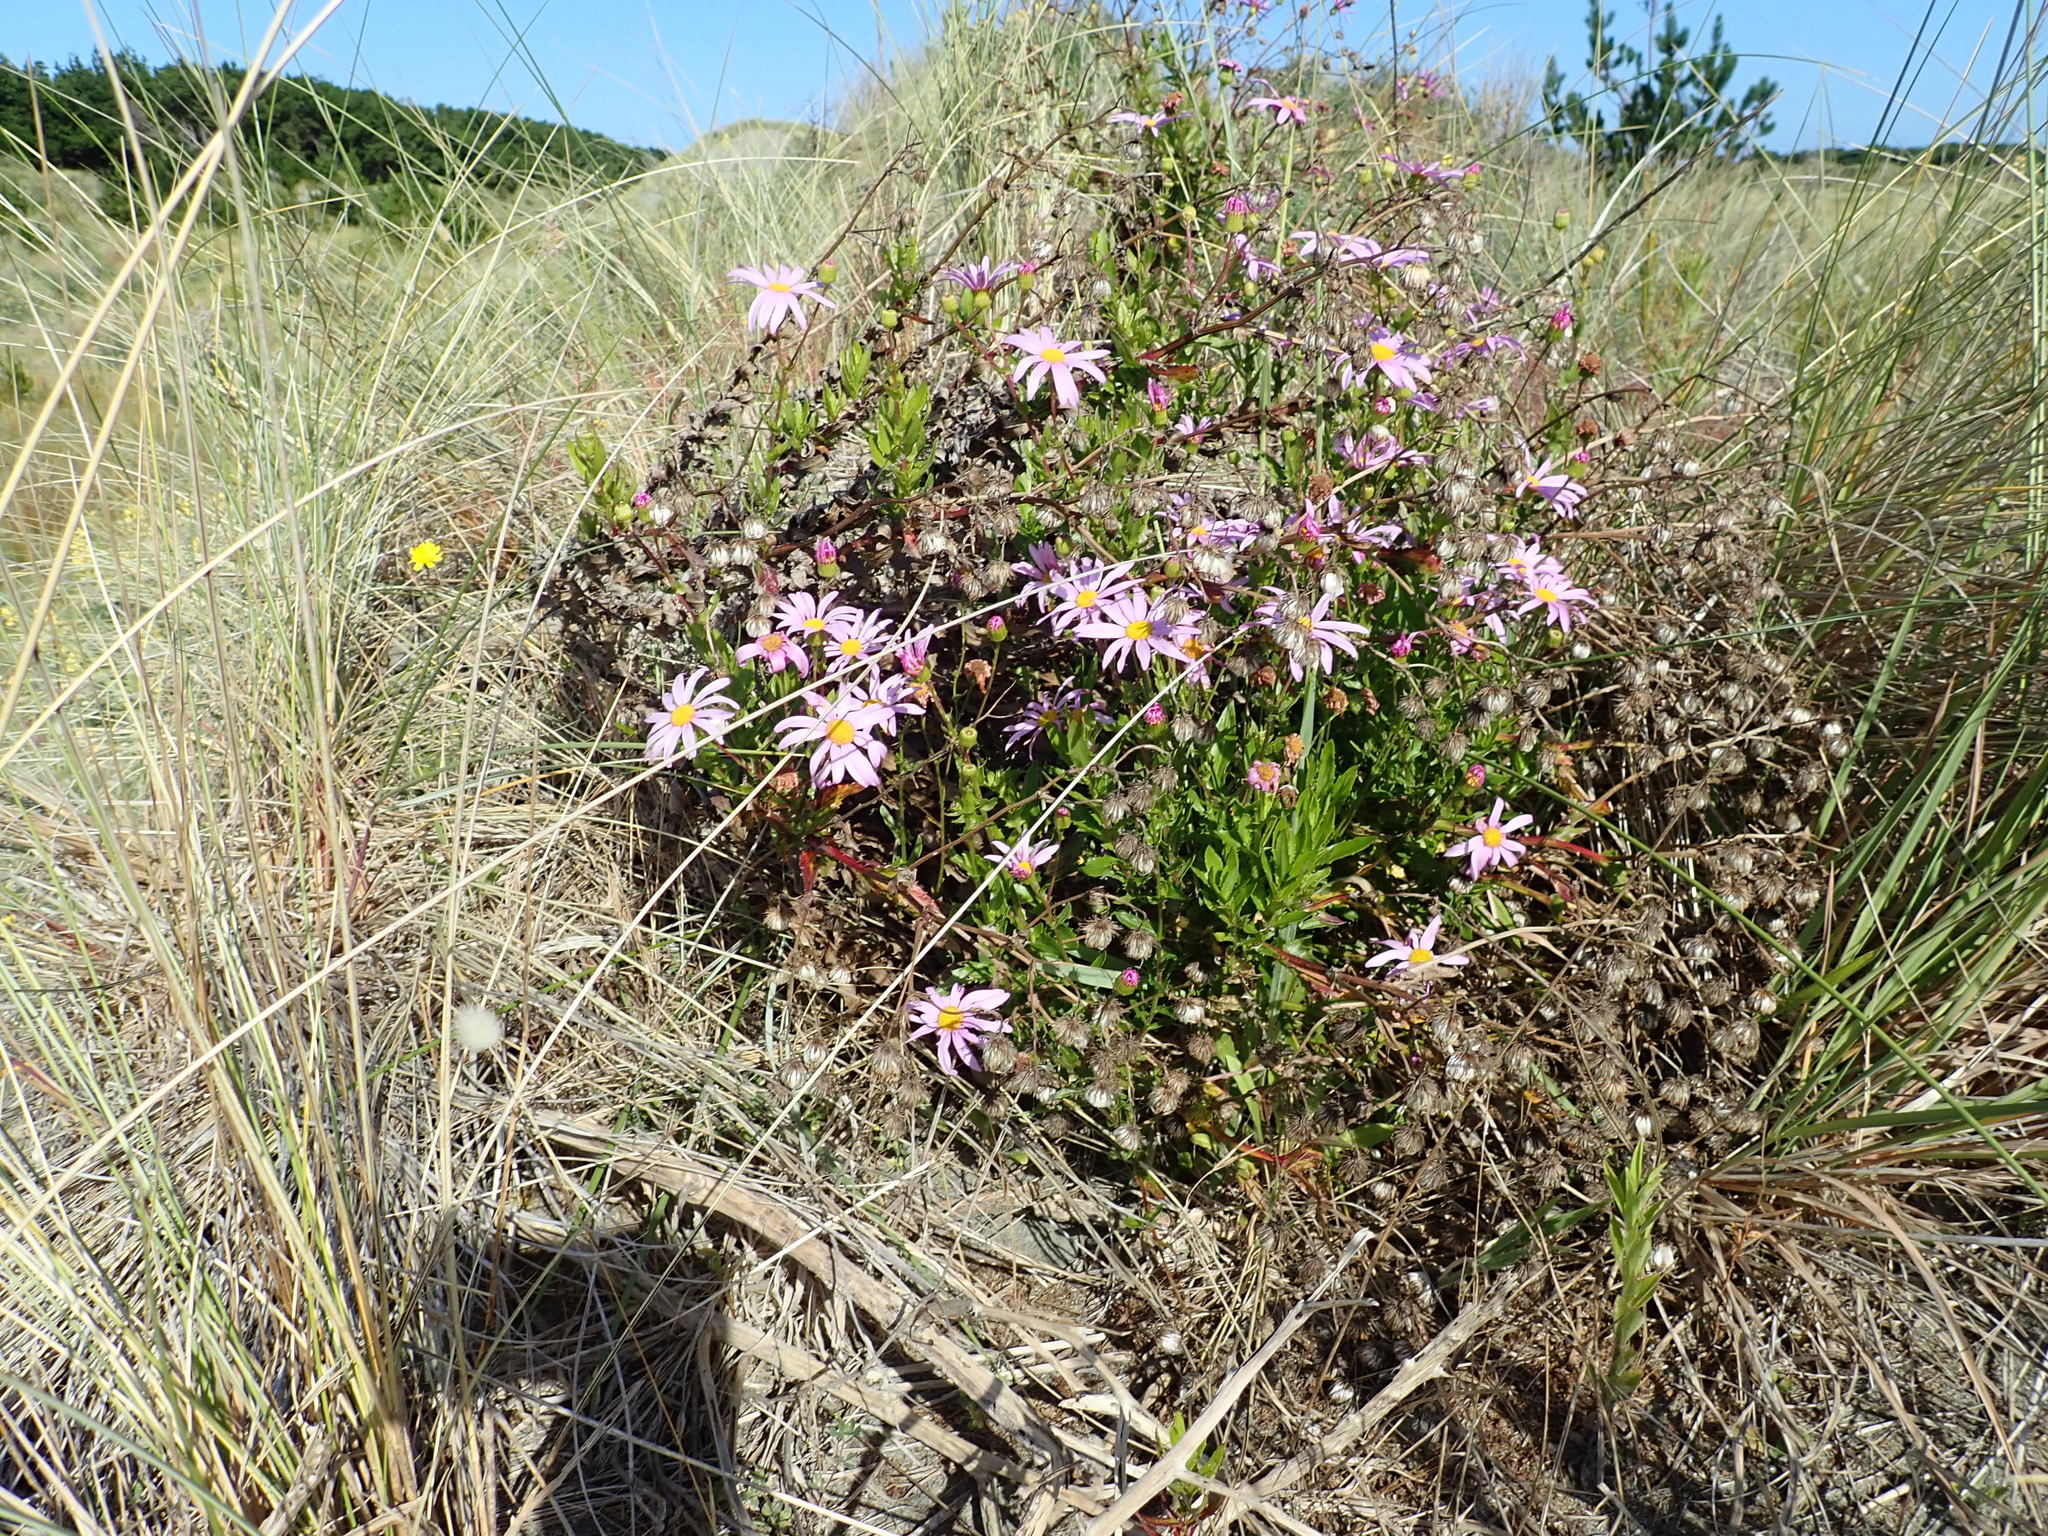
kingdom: Plantae
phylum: Tracheophyta
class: Magnoliopsida
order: Asterales
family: Asteraceae
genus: Senecio
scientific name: Senecio glastifolius
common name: Woad-leaved ragwort
